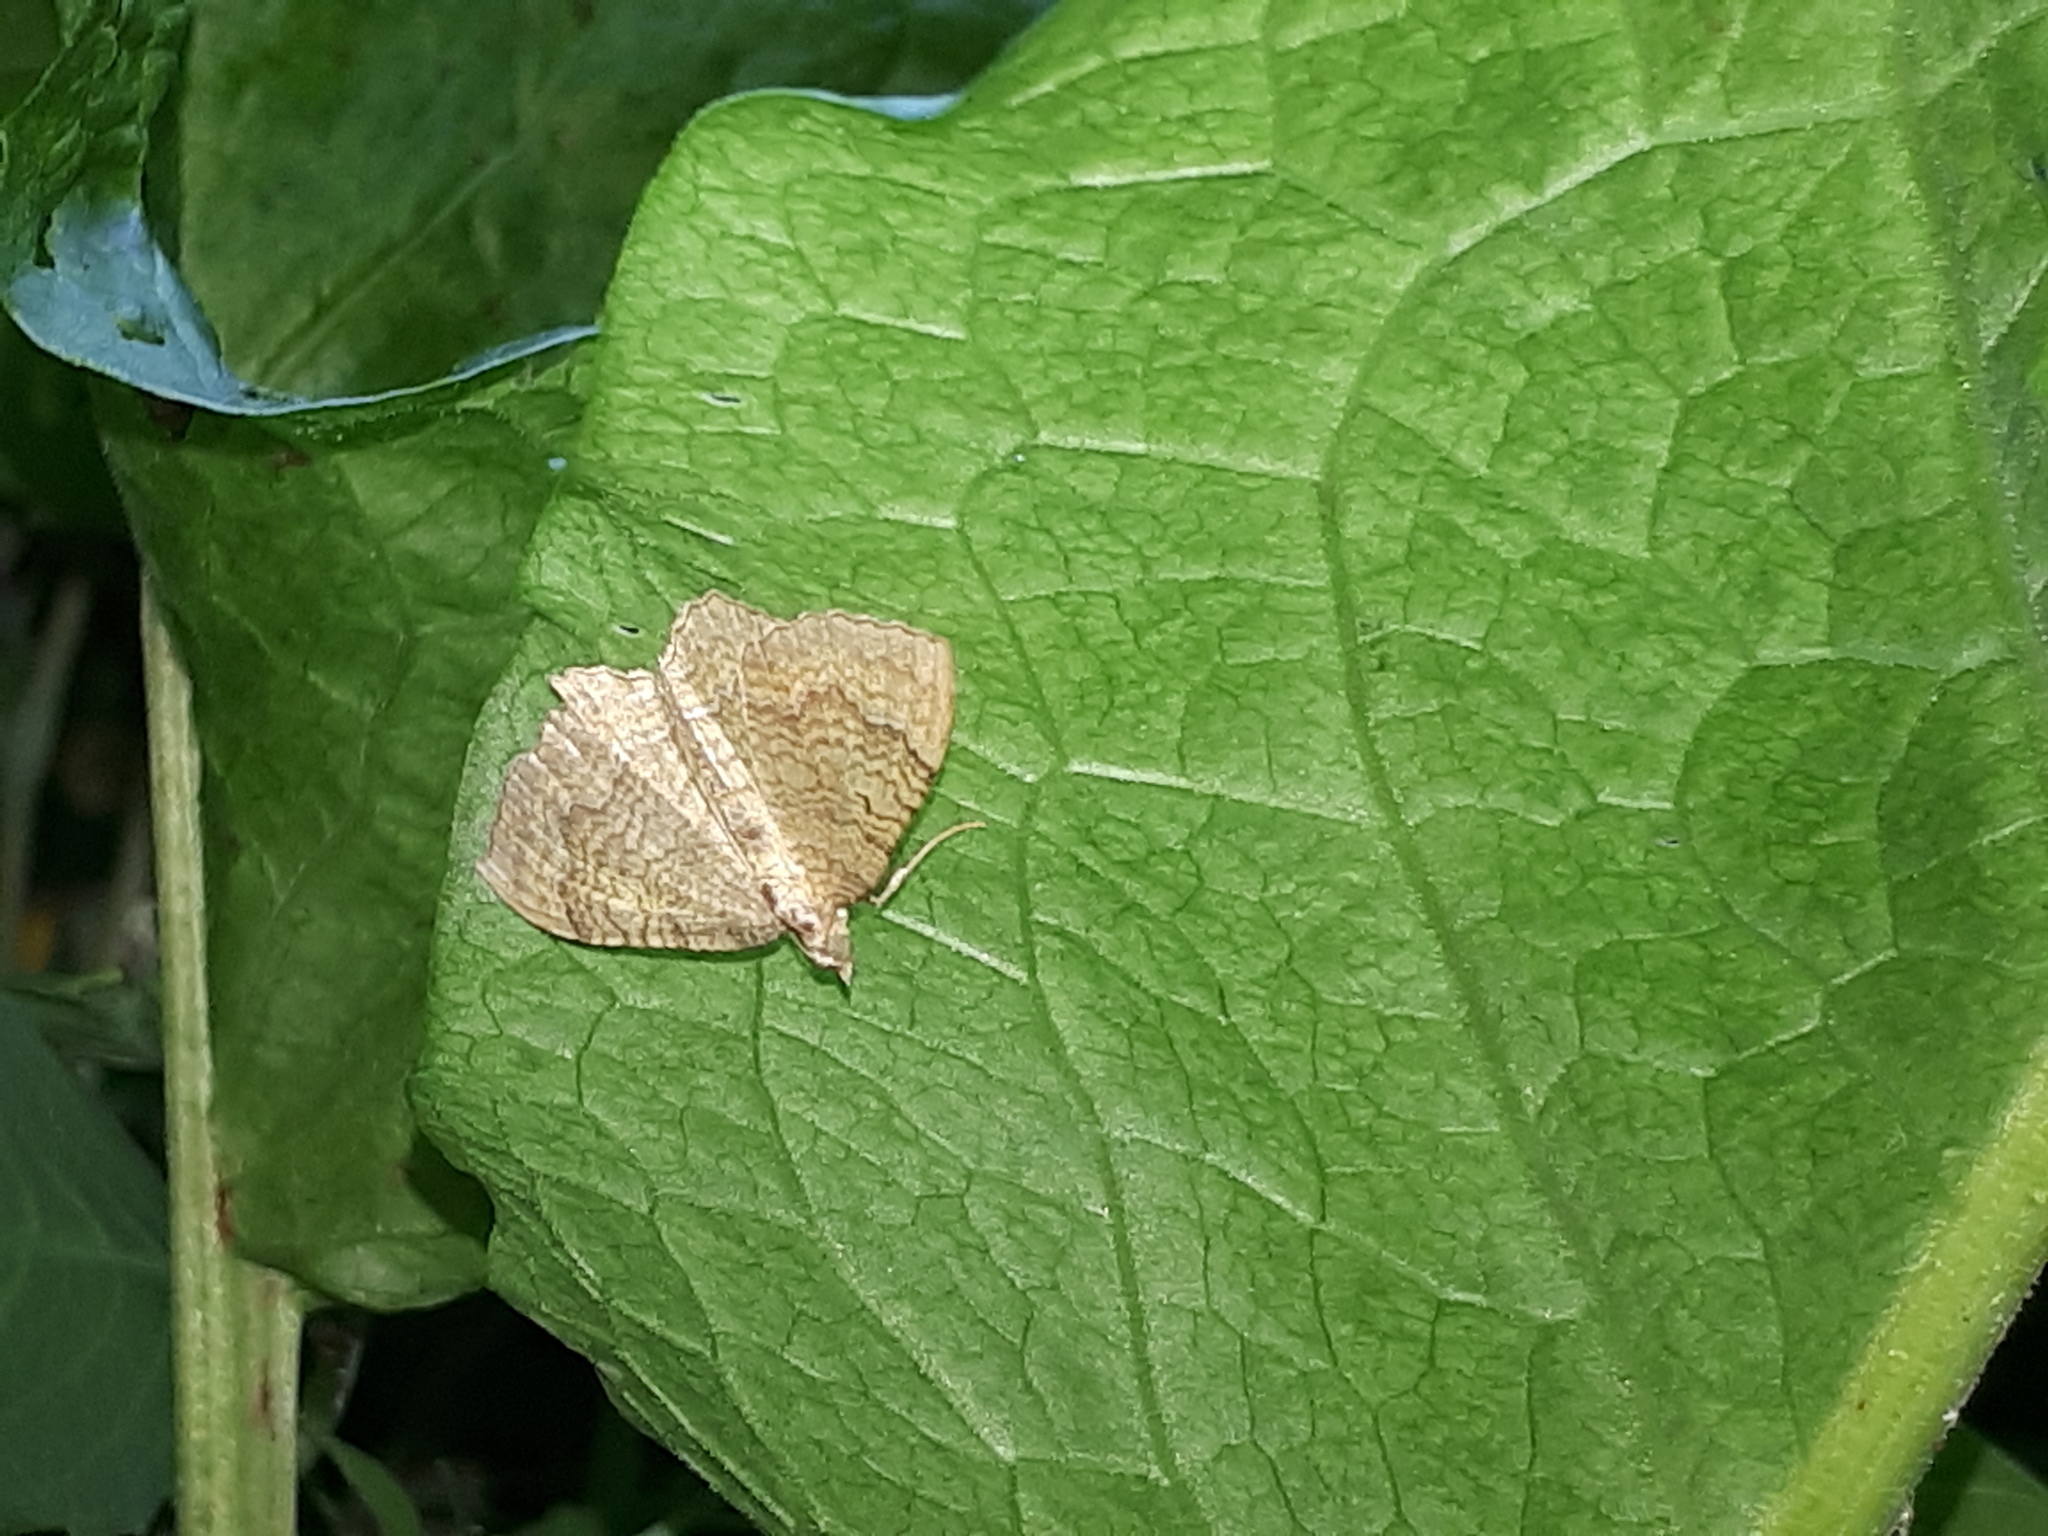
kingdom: Animalia
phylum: Arthropoda
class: Insecta
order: Lepidoptera
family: Geometridae
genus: Camptogramma
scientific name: Camptogramma bilineata
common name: Yellow shell
